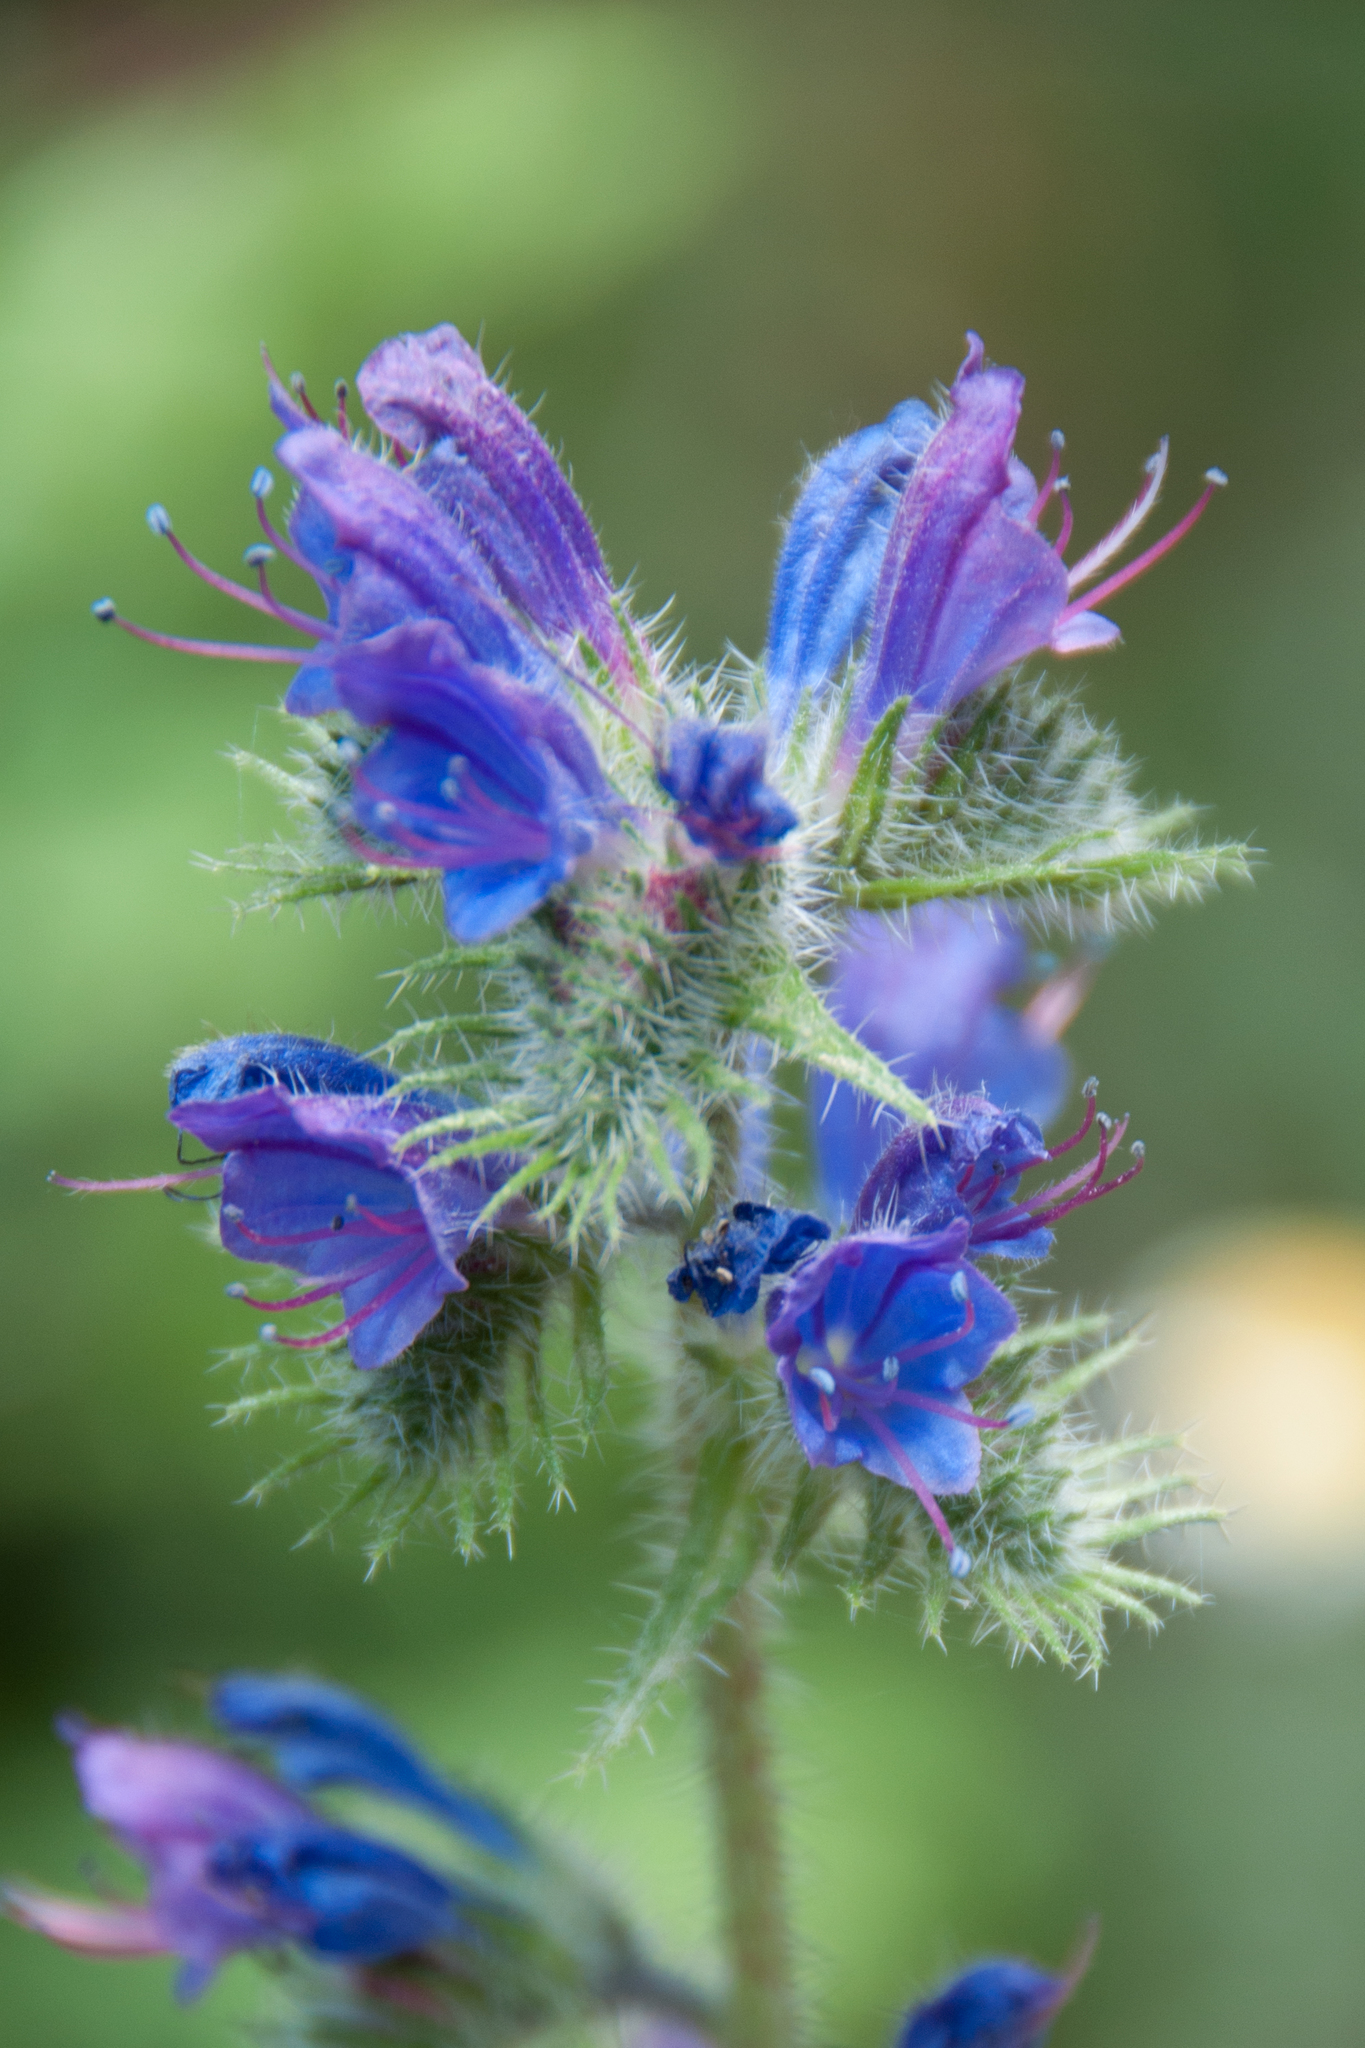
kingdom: Plantae
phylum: Tracheophyta
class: Magnoliopsida
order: Boraginales
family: Boraginaceae
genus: Echium
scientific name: Echium vulgare
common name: Common viper's bugloss
